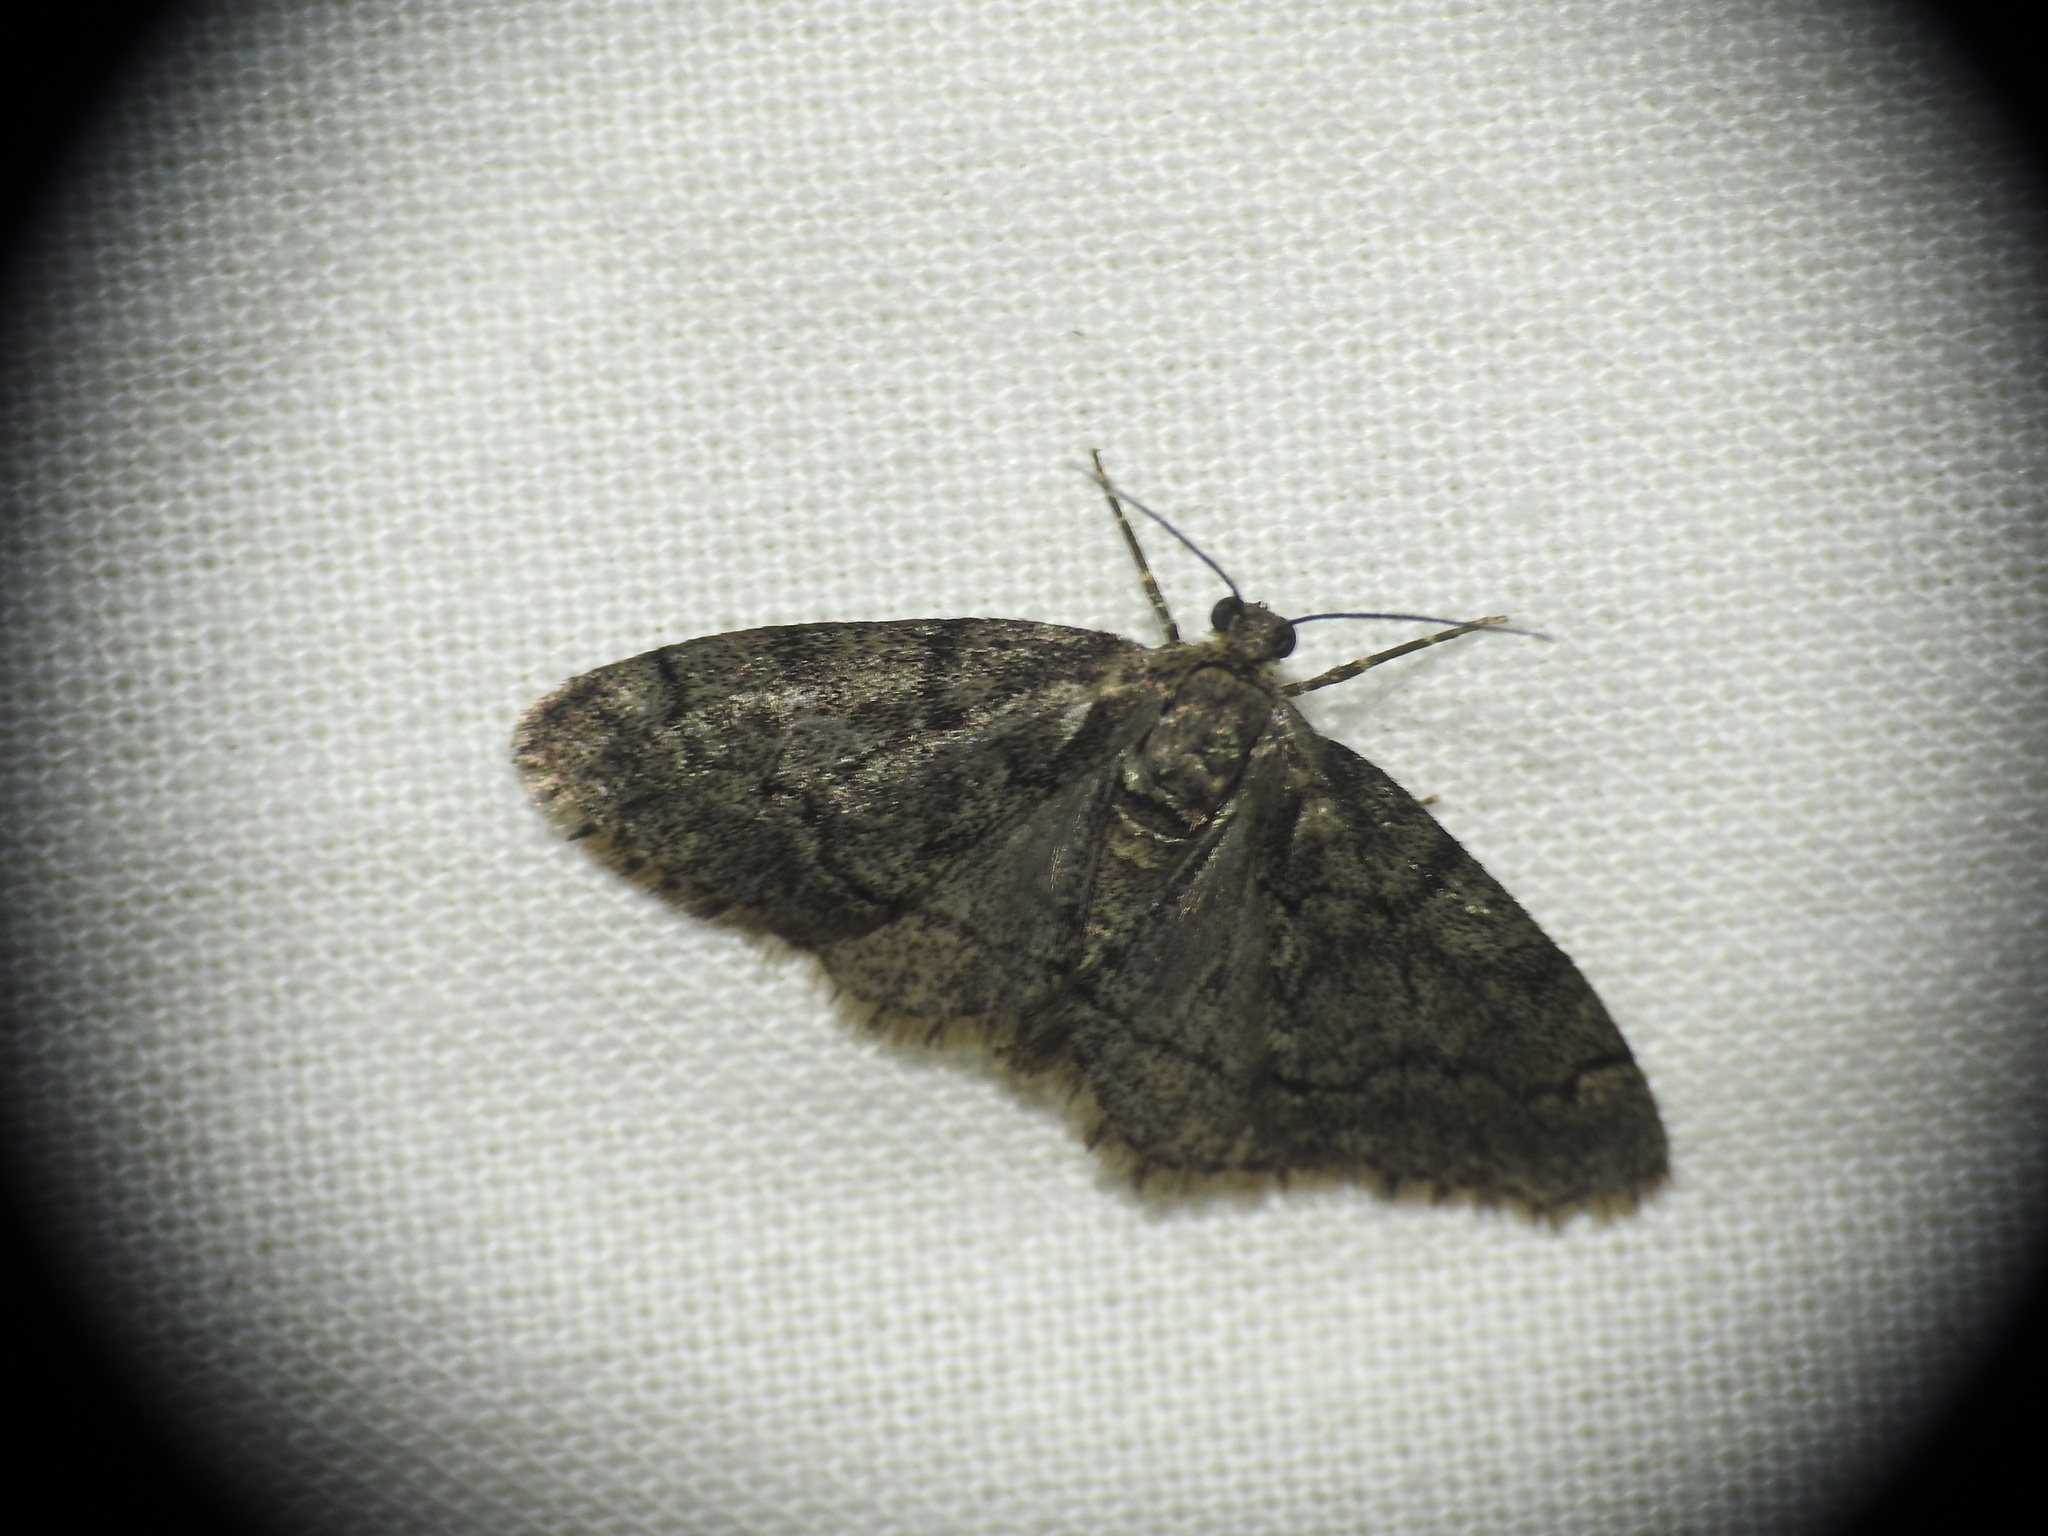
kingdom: Animalia
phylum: Arthropoda
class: Insecta
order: Lepidoptera
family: Geometridae
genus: Tephronia
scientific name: Tephronia sepiaria
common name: Dusky carpet
